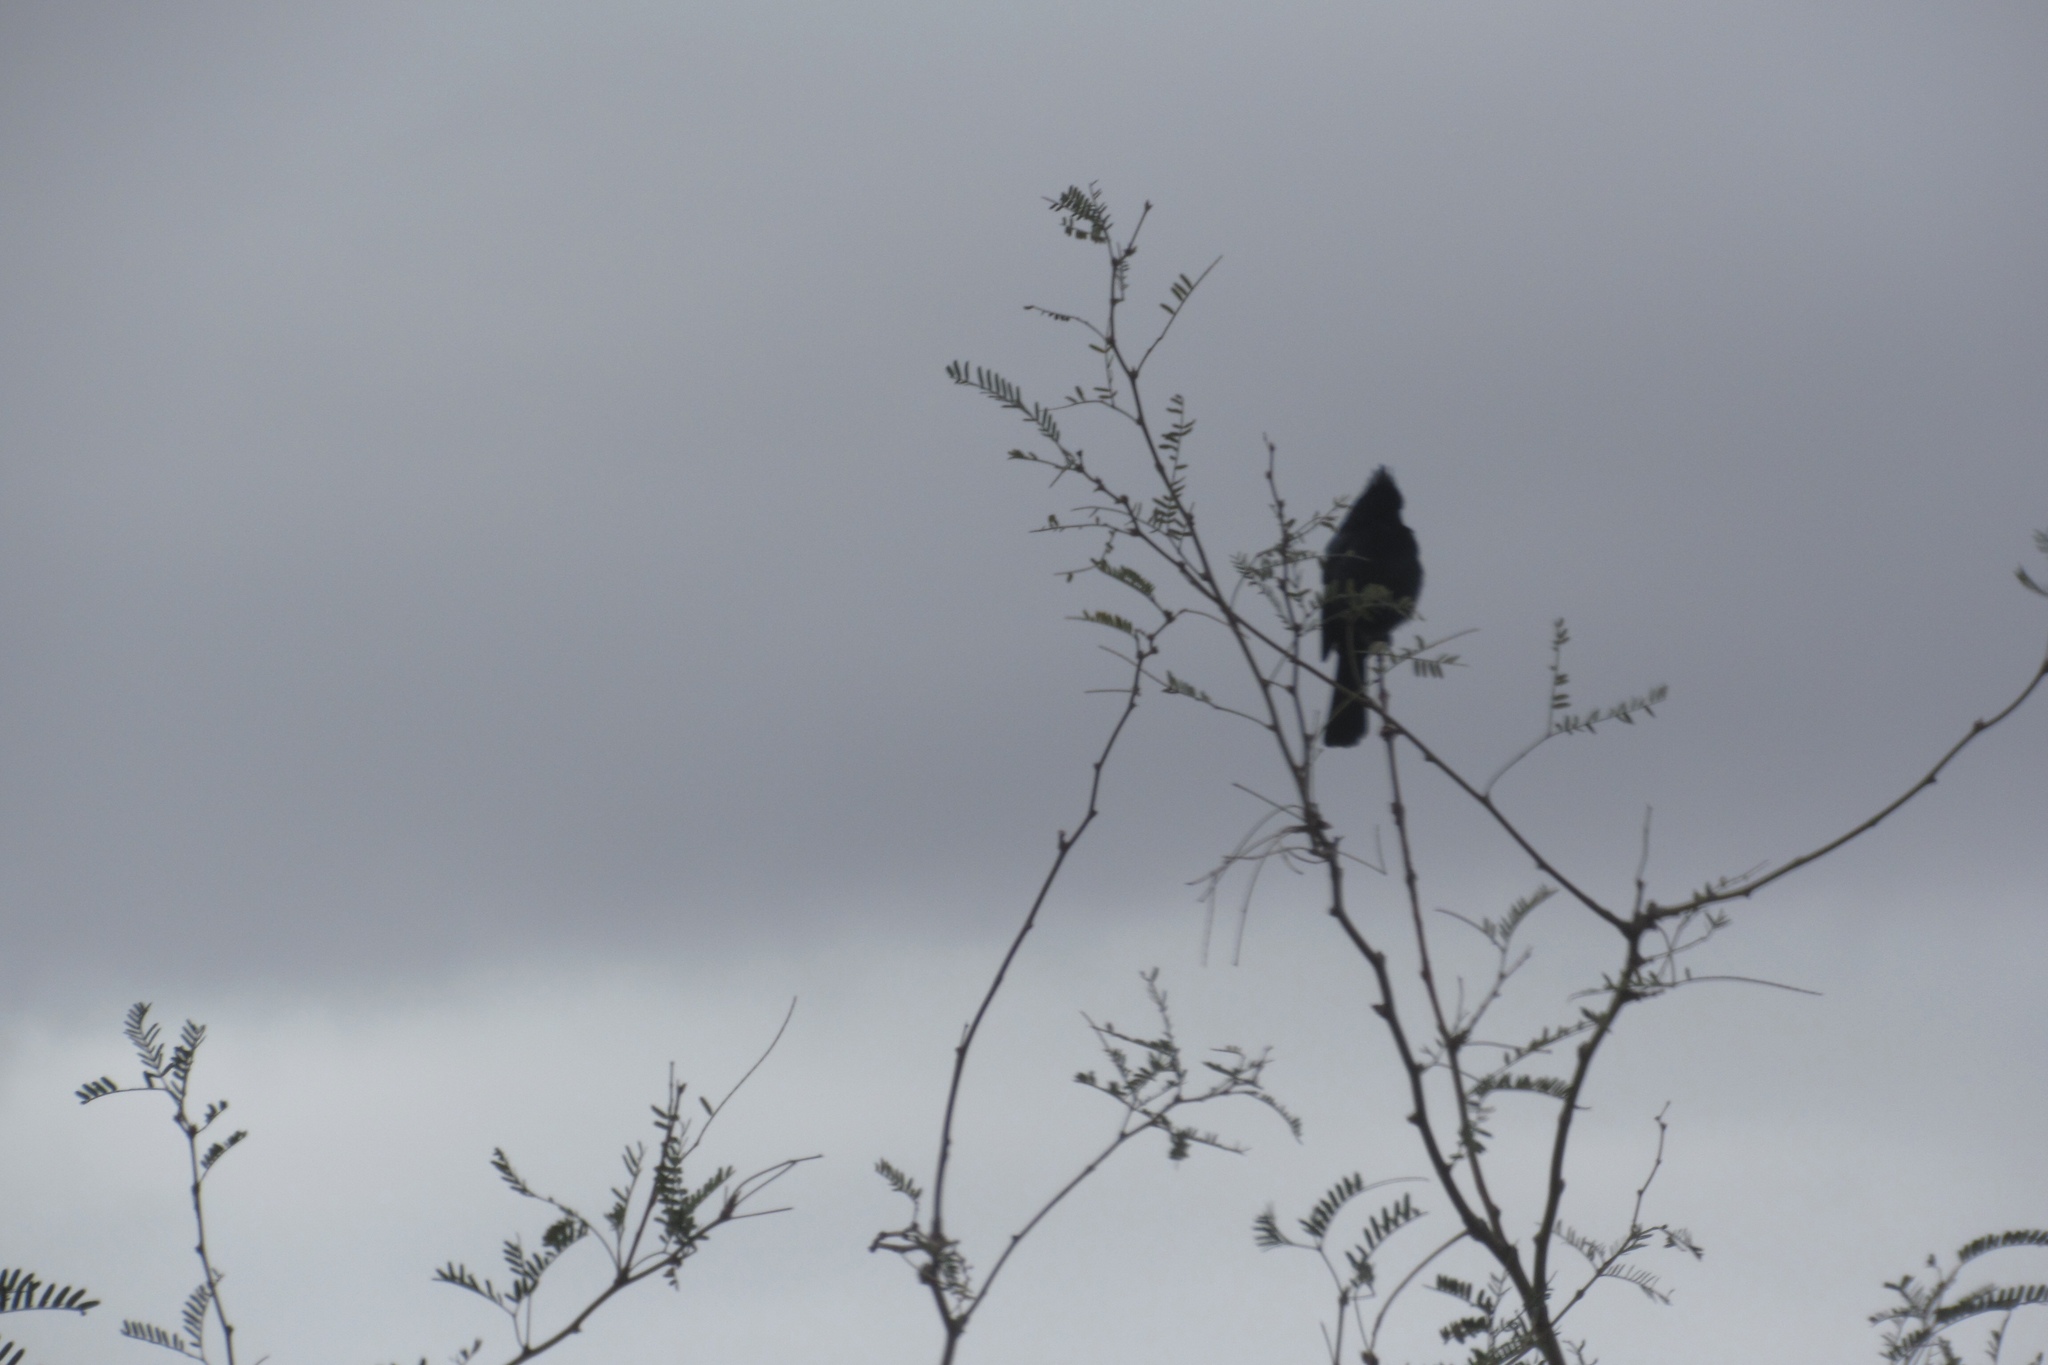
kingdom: Animalia
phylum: Chordata
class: Aves
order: Passeriformes
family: Ptilogonatidae
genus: Phainopepla
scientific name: Phainopepla nitens
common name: Phainopepla
